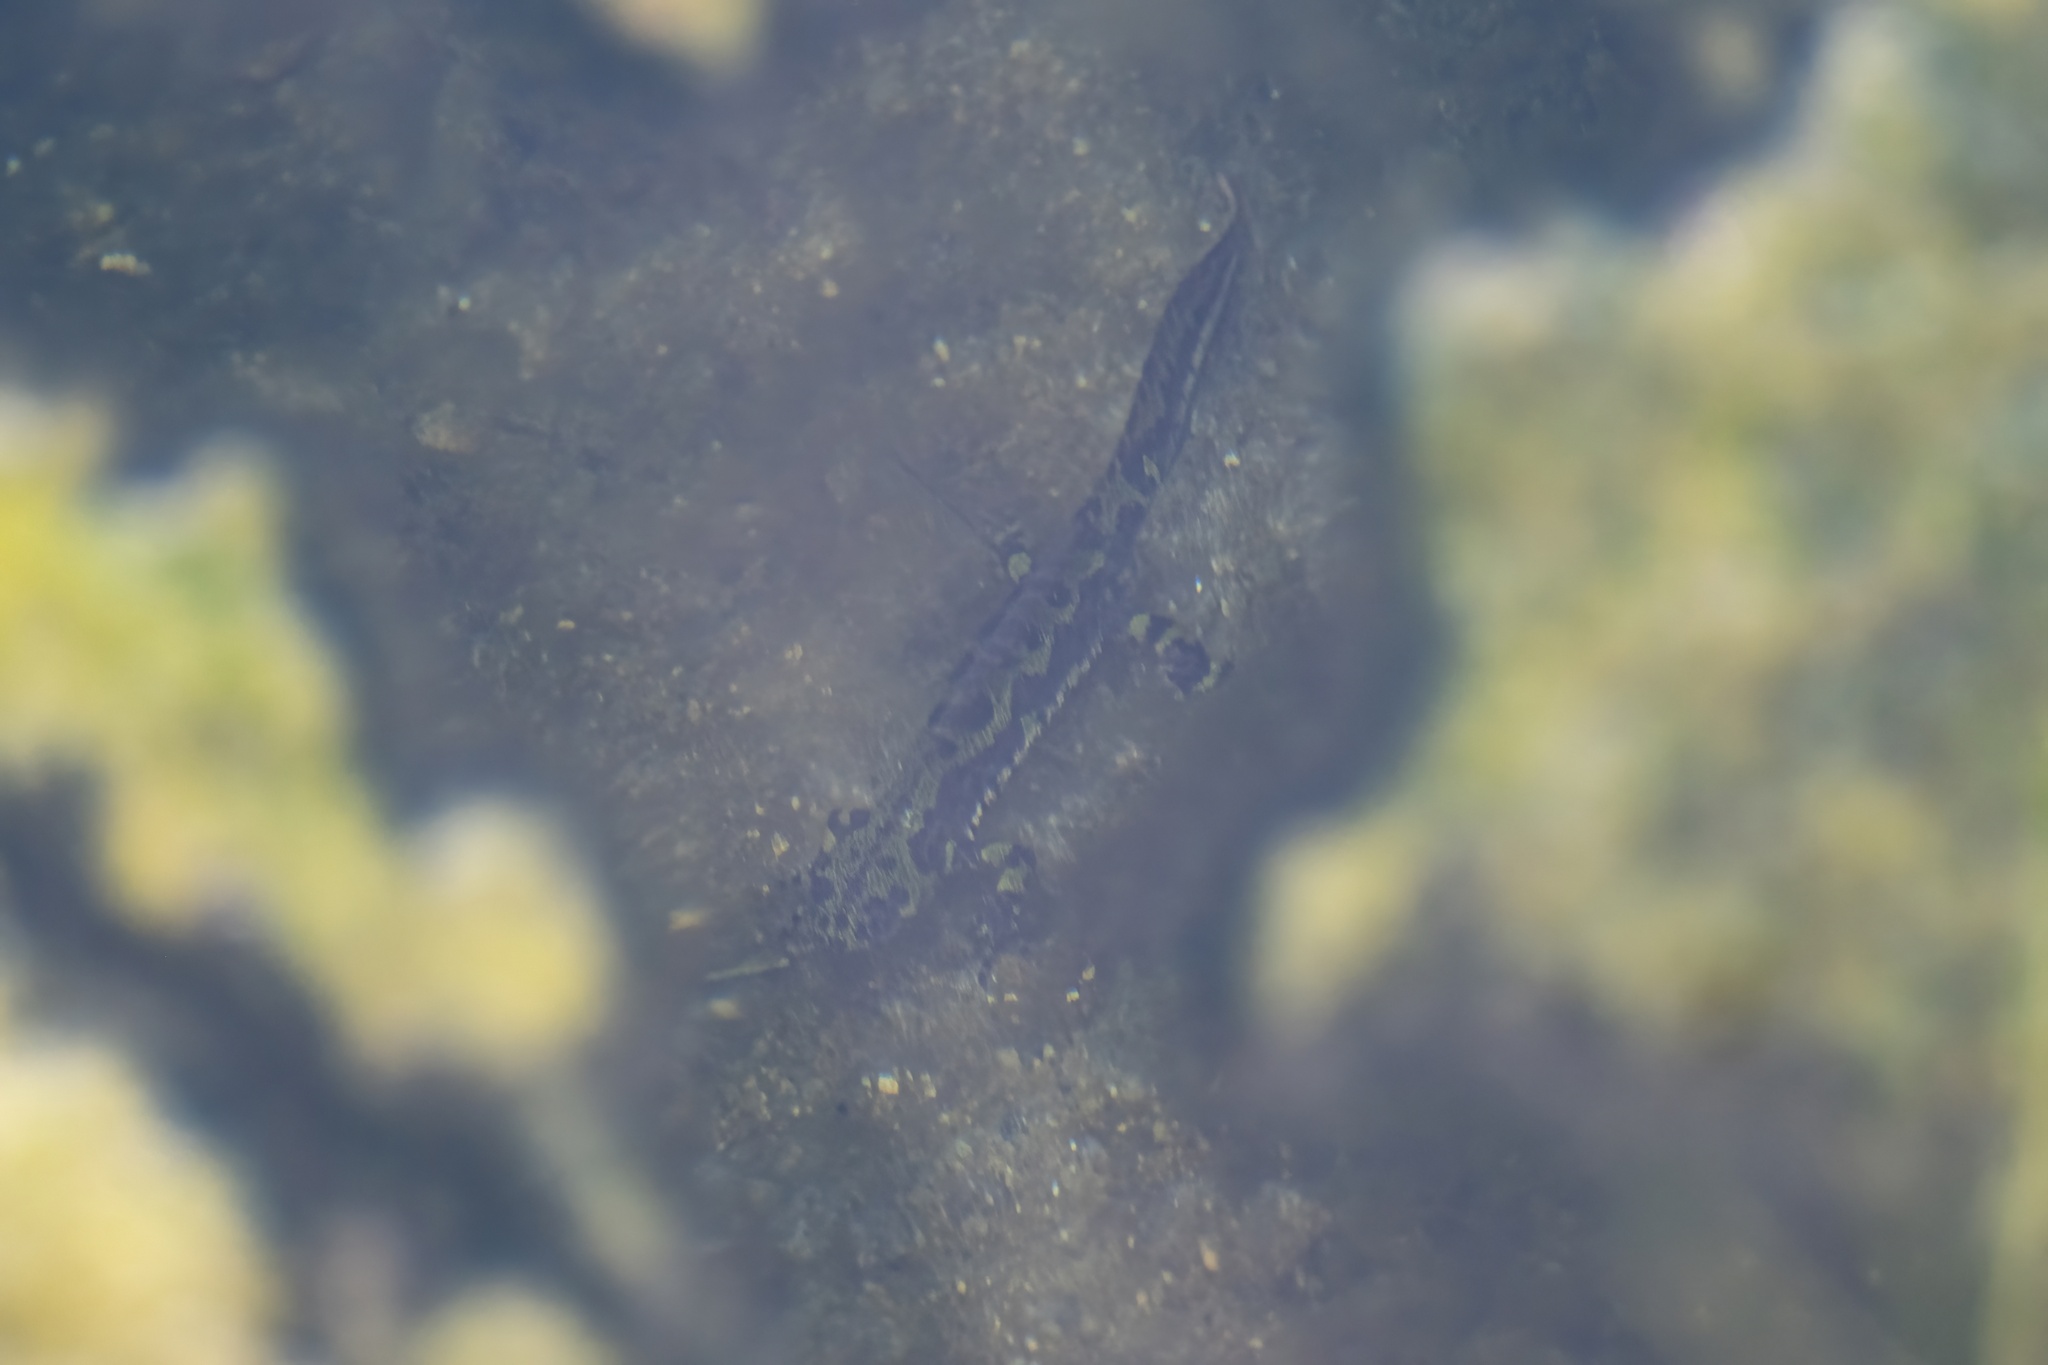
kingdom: Animalia
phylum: Chordata
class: Amphibia
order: Caudata
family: Salamandridae
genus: Triturus
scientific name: Triturus marmoratus
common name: Marbled newt
